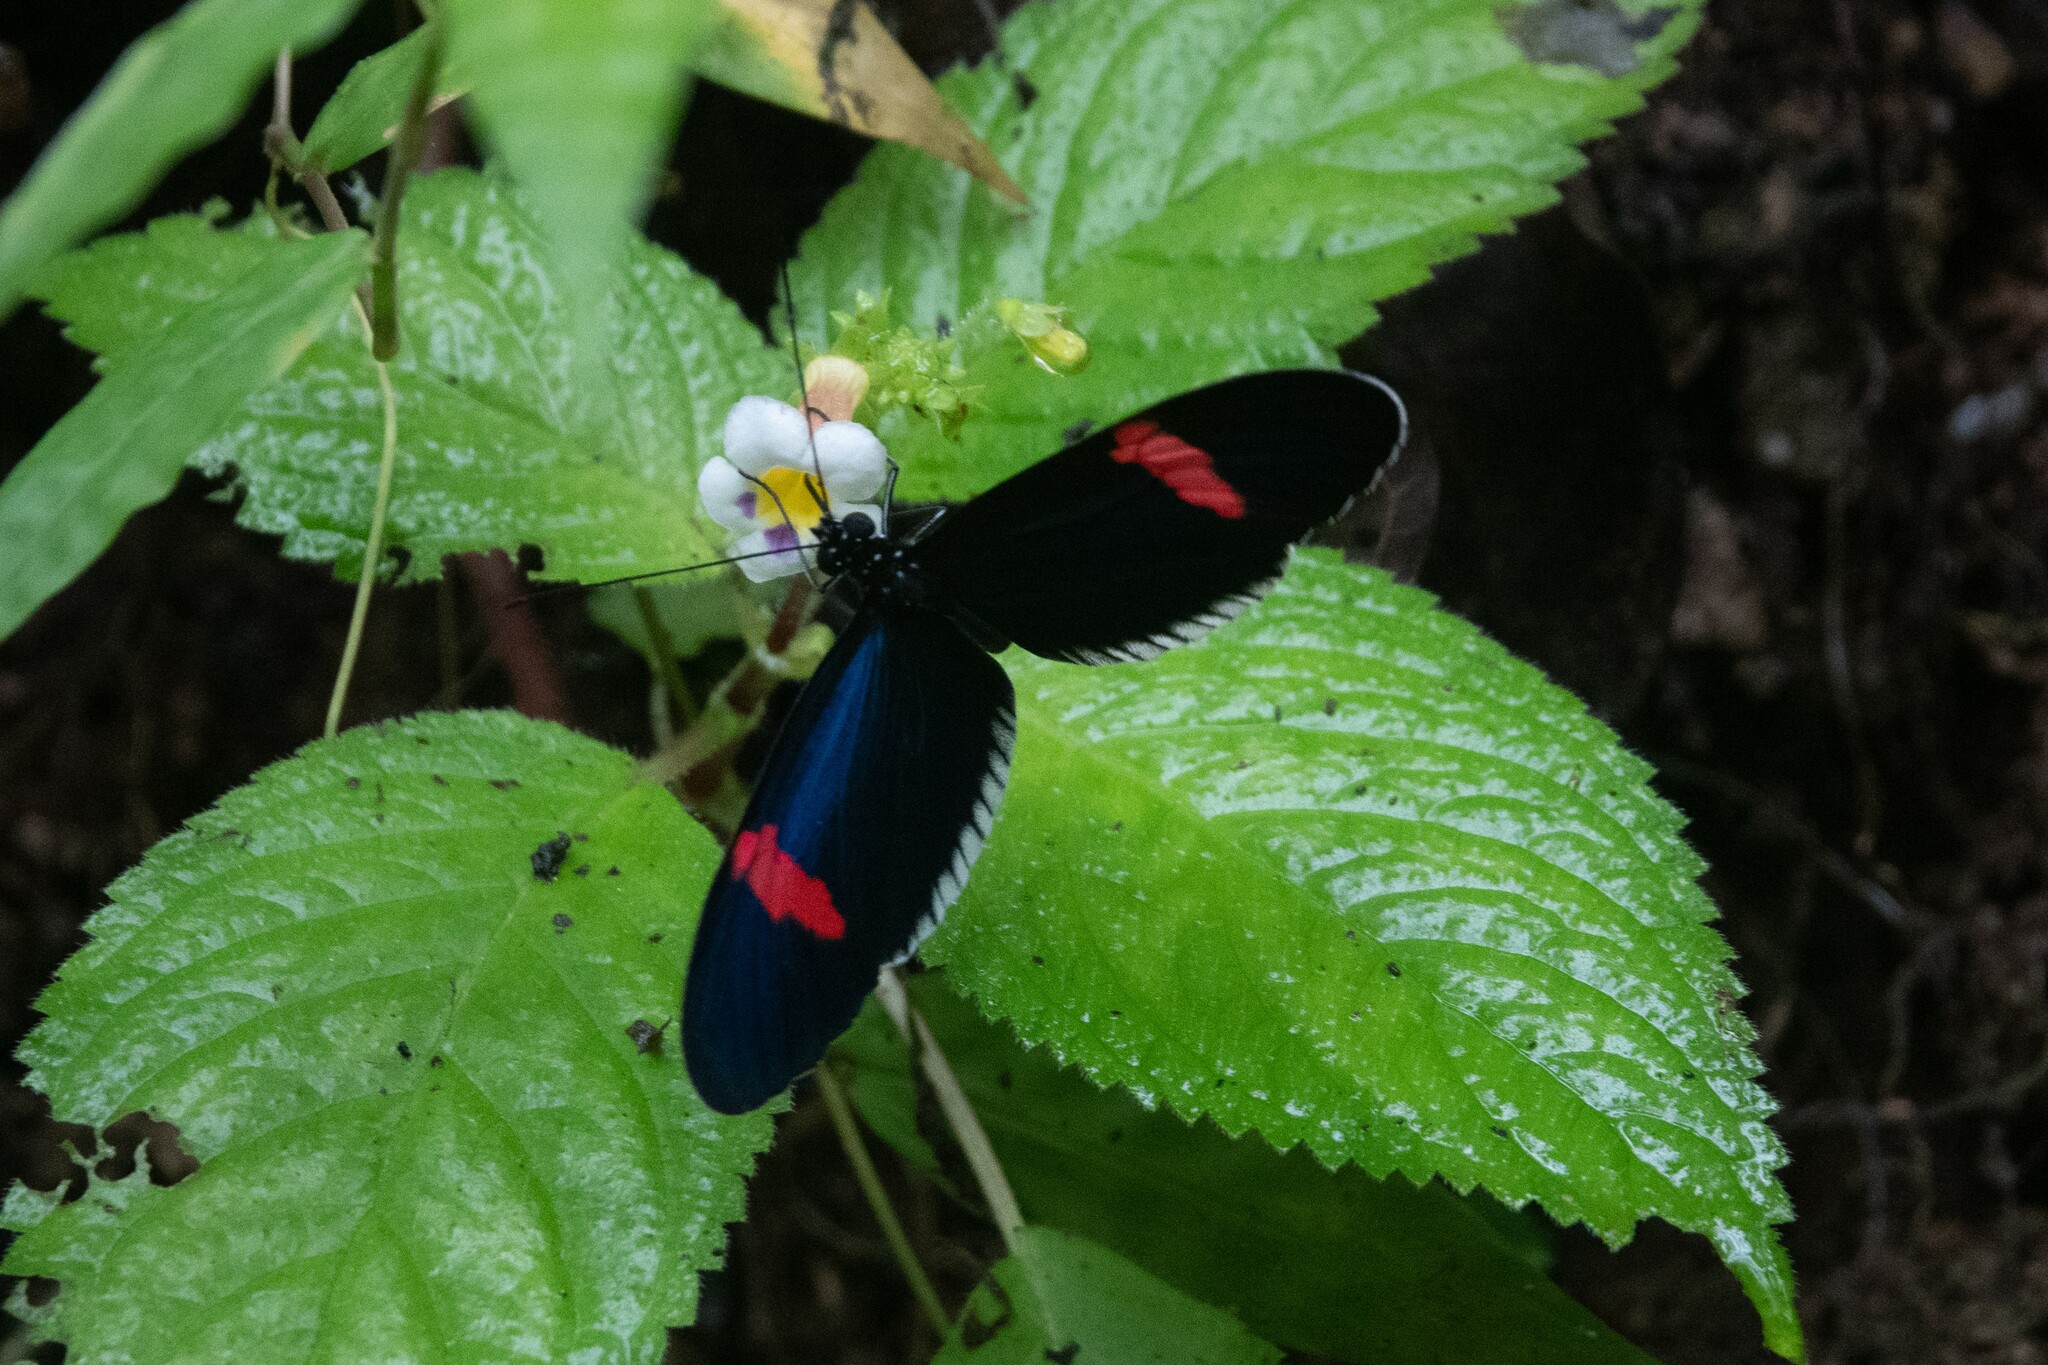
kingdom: Animalia
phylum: Arthropoda
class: Insecta
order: Lepidoptera
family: Nymphalidae
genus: Heliconius
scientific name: Heliconius erato
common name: Common patch longwing
